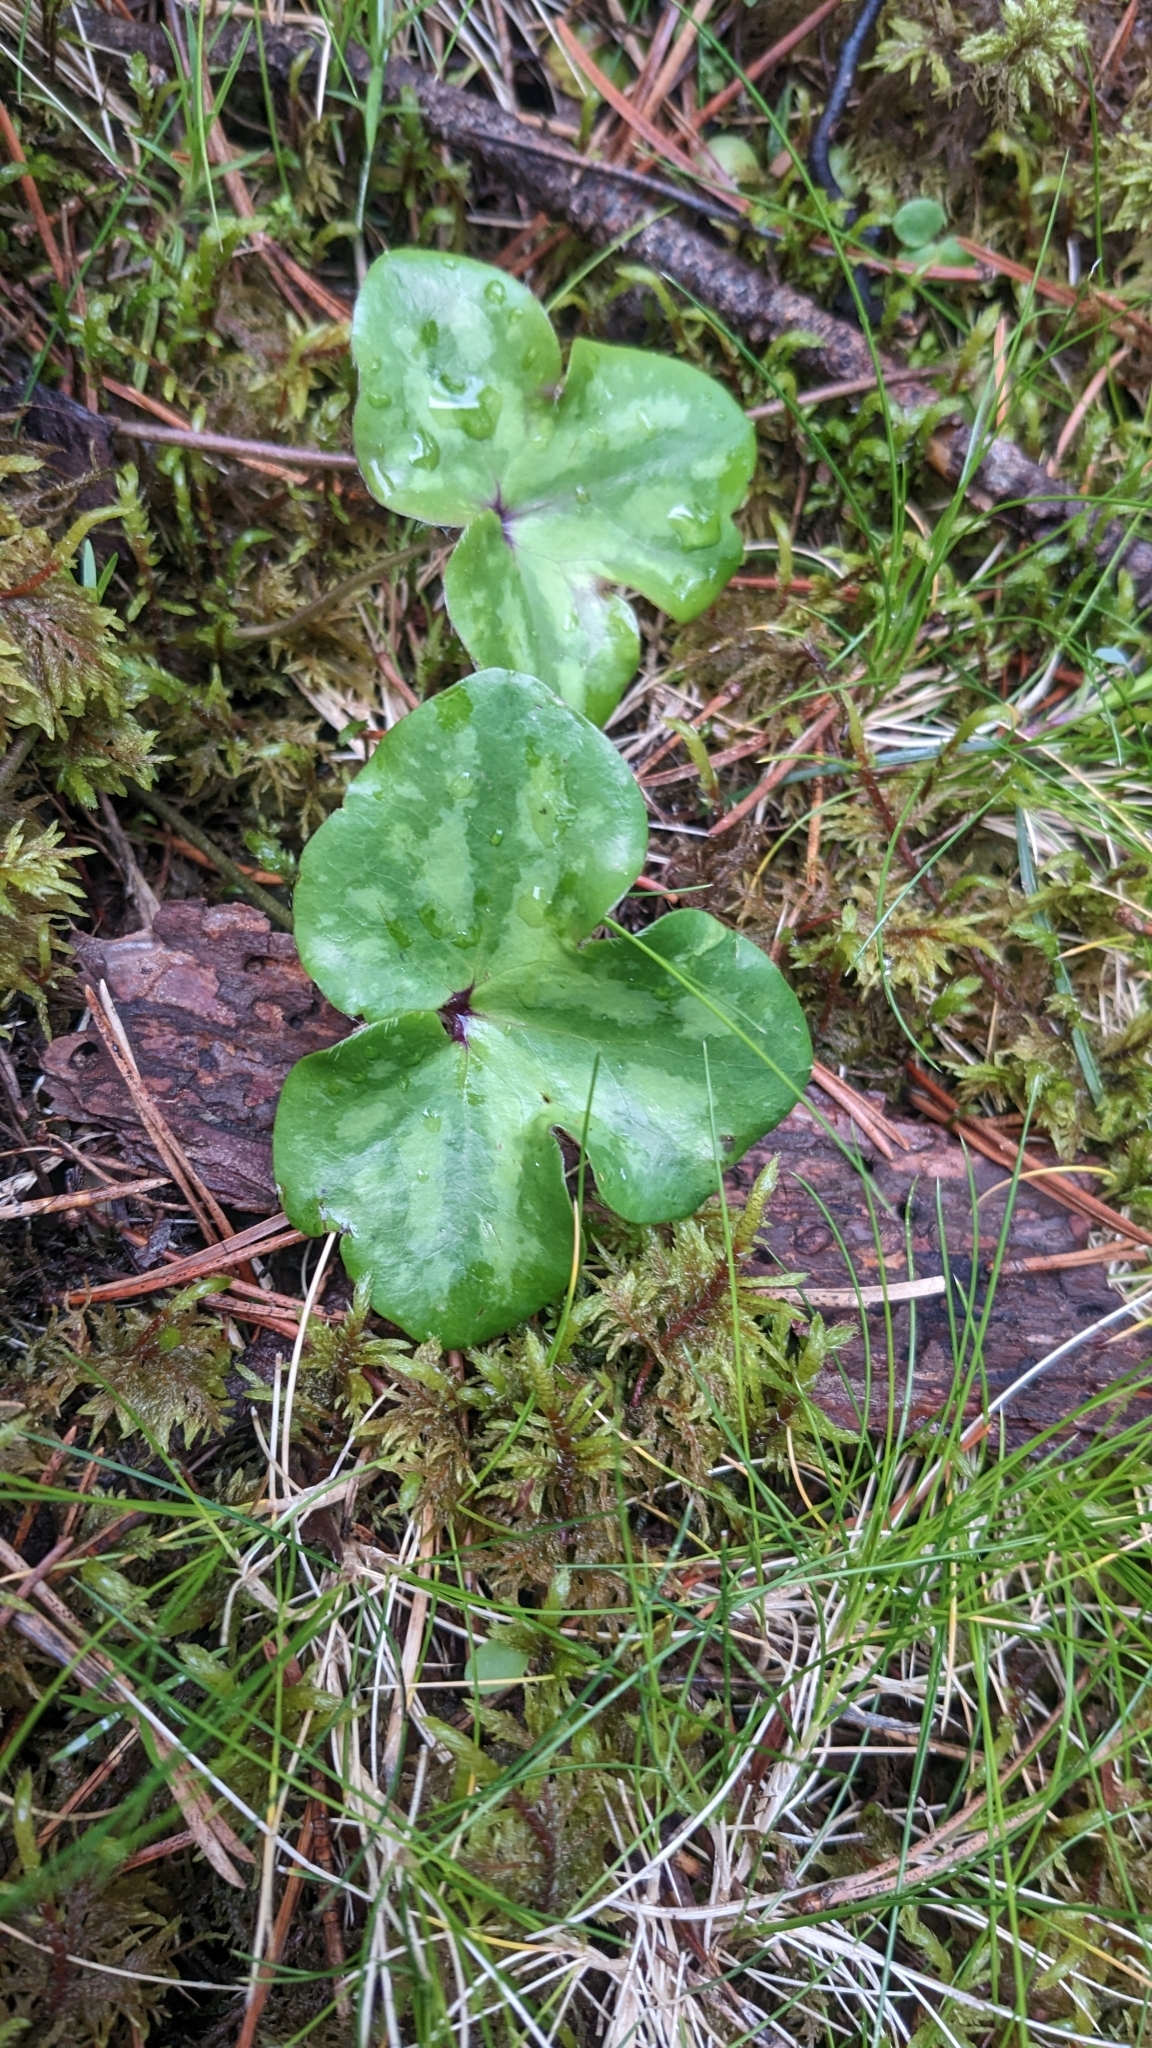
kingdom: Plantae
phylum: Tracheophyta
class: Magnoliopsida
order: Ranunculales
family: Ranunculaceae
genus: Hepatica
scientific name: Hepatica nobilis
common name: Liverleaf
